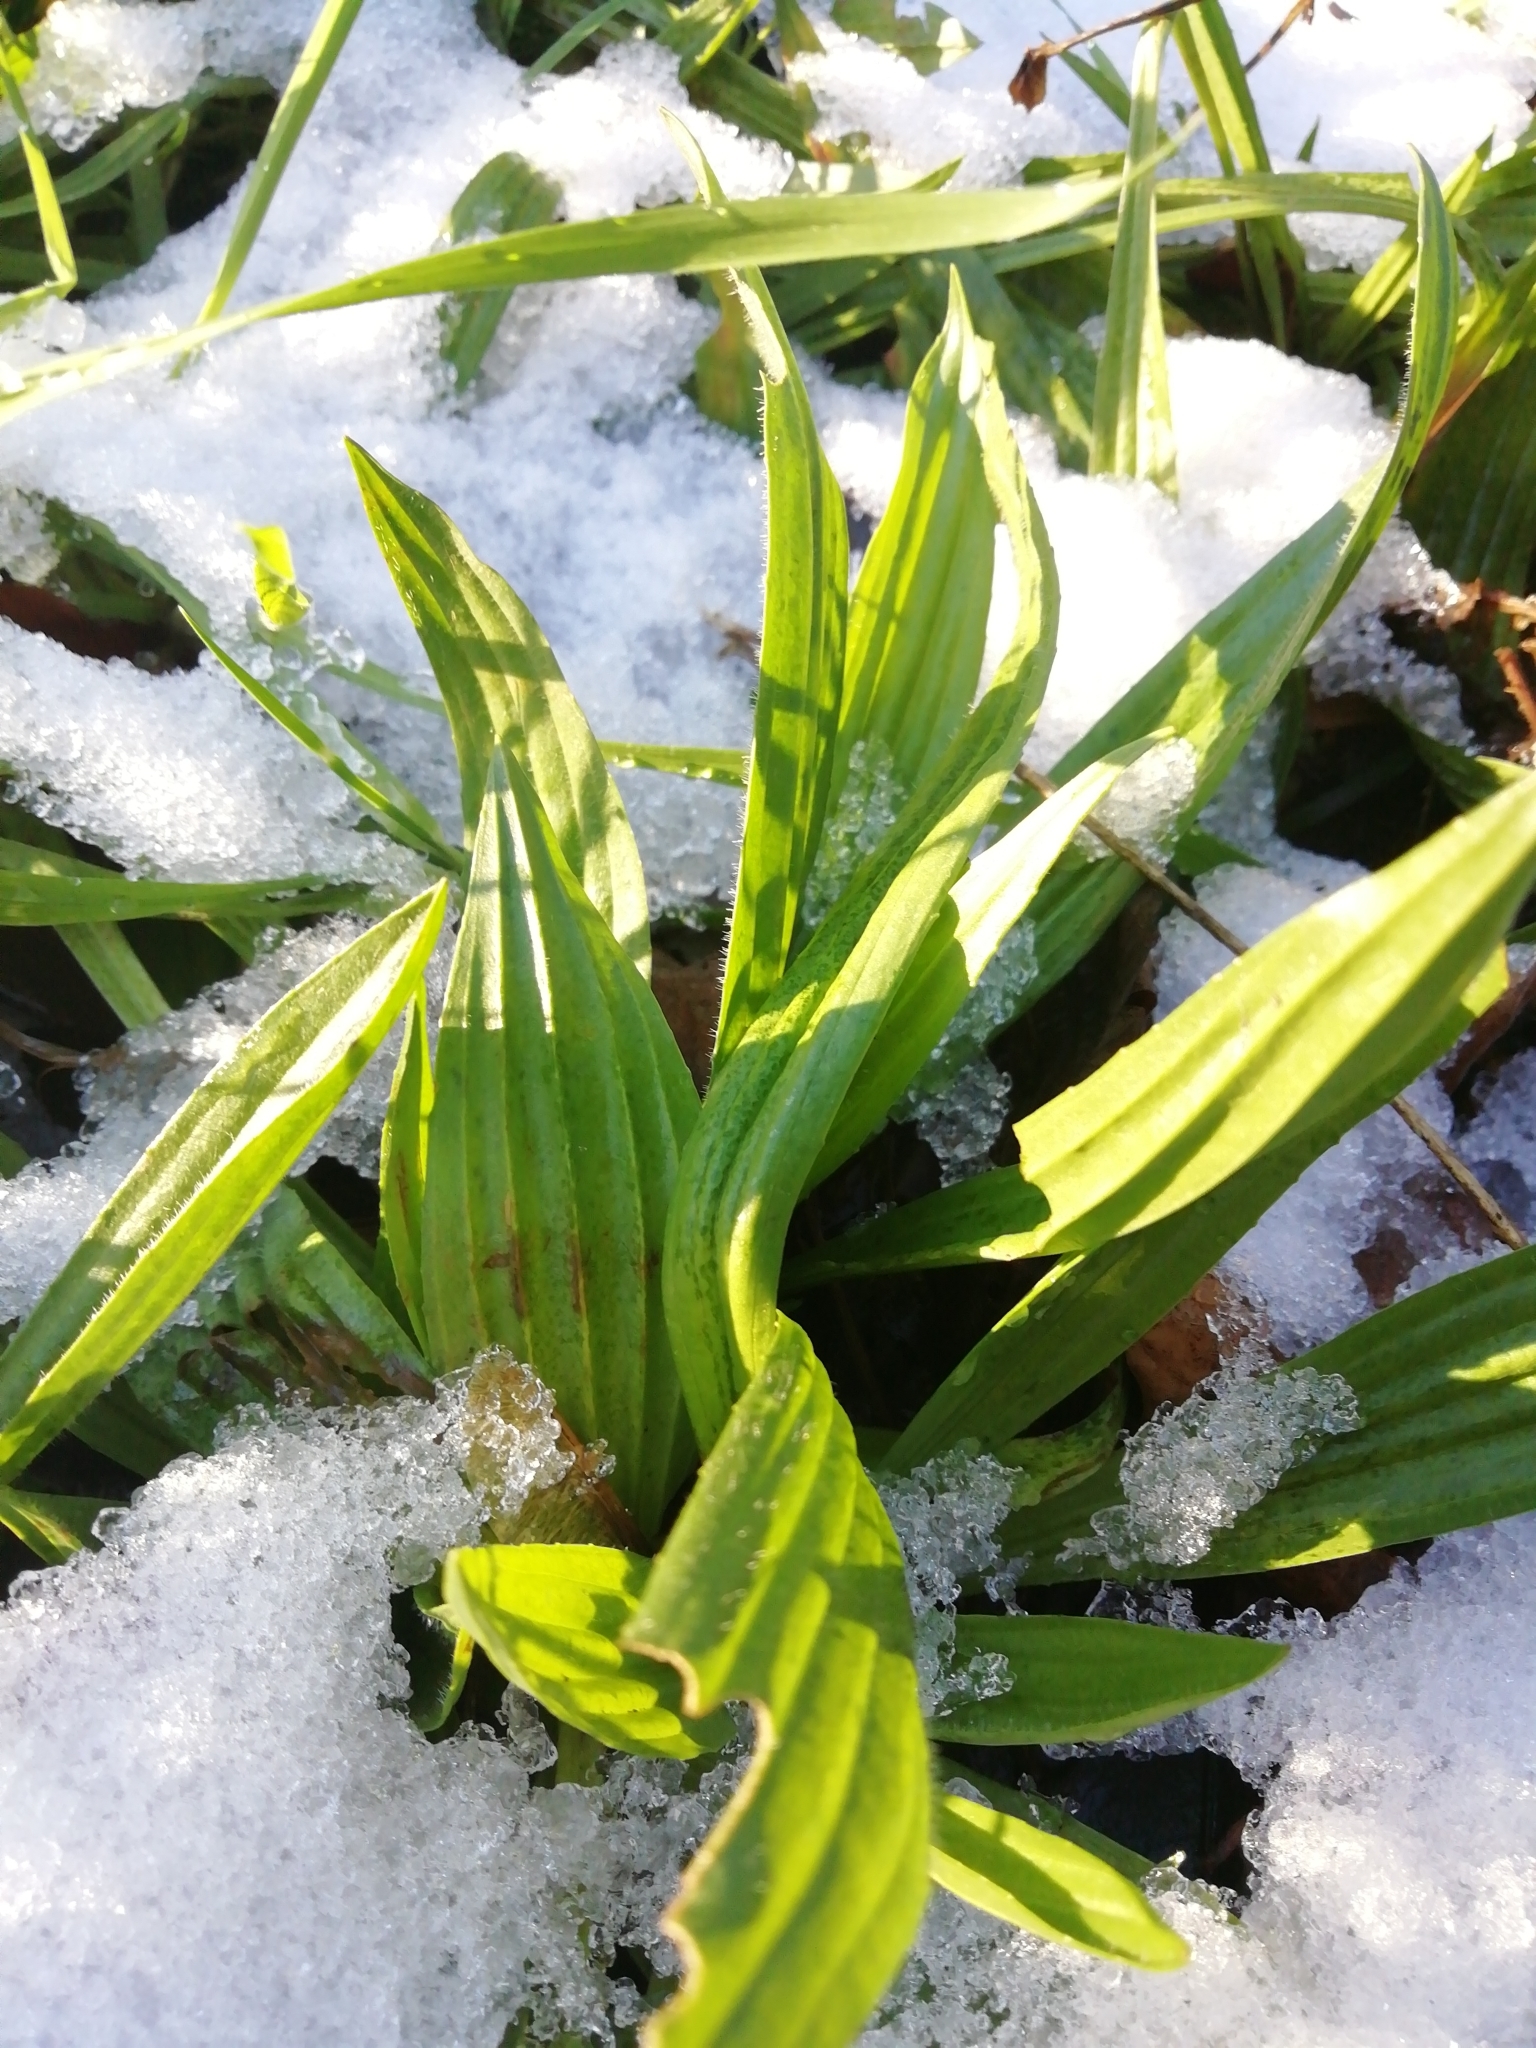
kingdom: Plantae
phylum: Tracheophyta
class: Magnoliopsida
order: Lamiales
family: Plantaginaceae
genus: Plantago
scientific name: Plantago lanceolata
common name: Ribwort plantain
